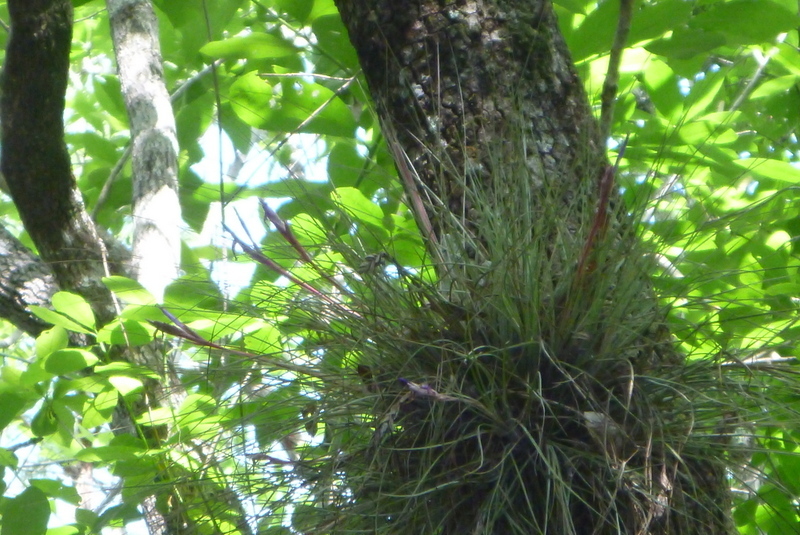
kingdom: Plantae
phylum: Tracheophyta
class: Liliopsida
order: Poales
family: Bromeliaceae
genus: Tillandsia
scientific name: Tillandsia bartramii
